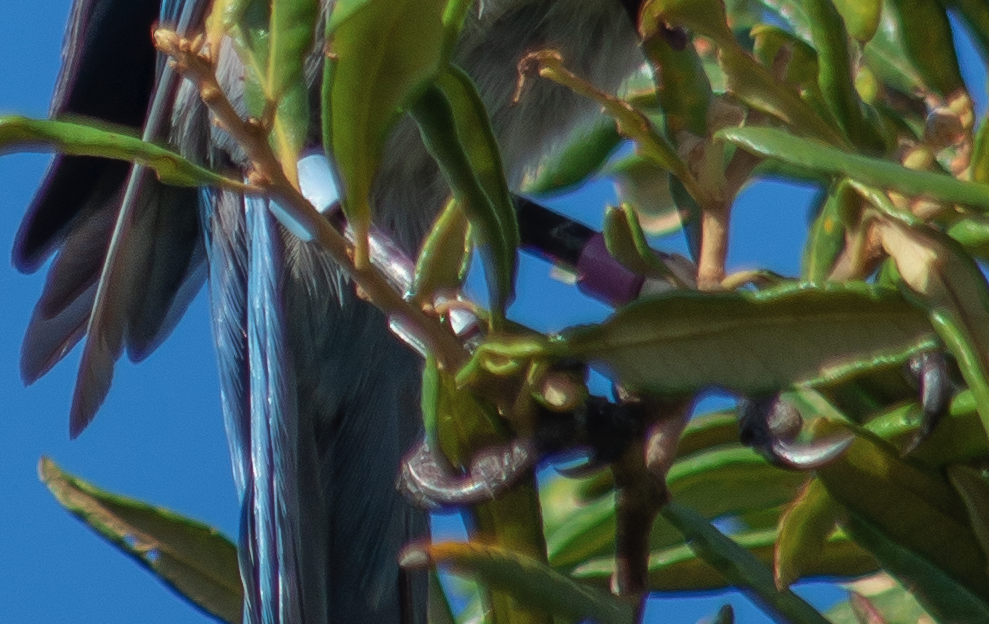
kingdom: Animalia
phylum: Chordata
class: Aves
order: Passeriformes
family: Corvidae
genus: Aphelocoma
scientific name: Aphelocoma coerulescens
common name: Florida scrub jay
